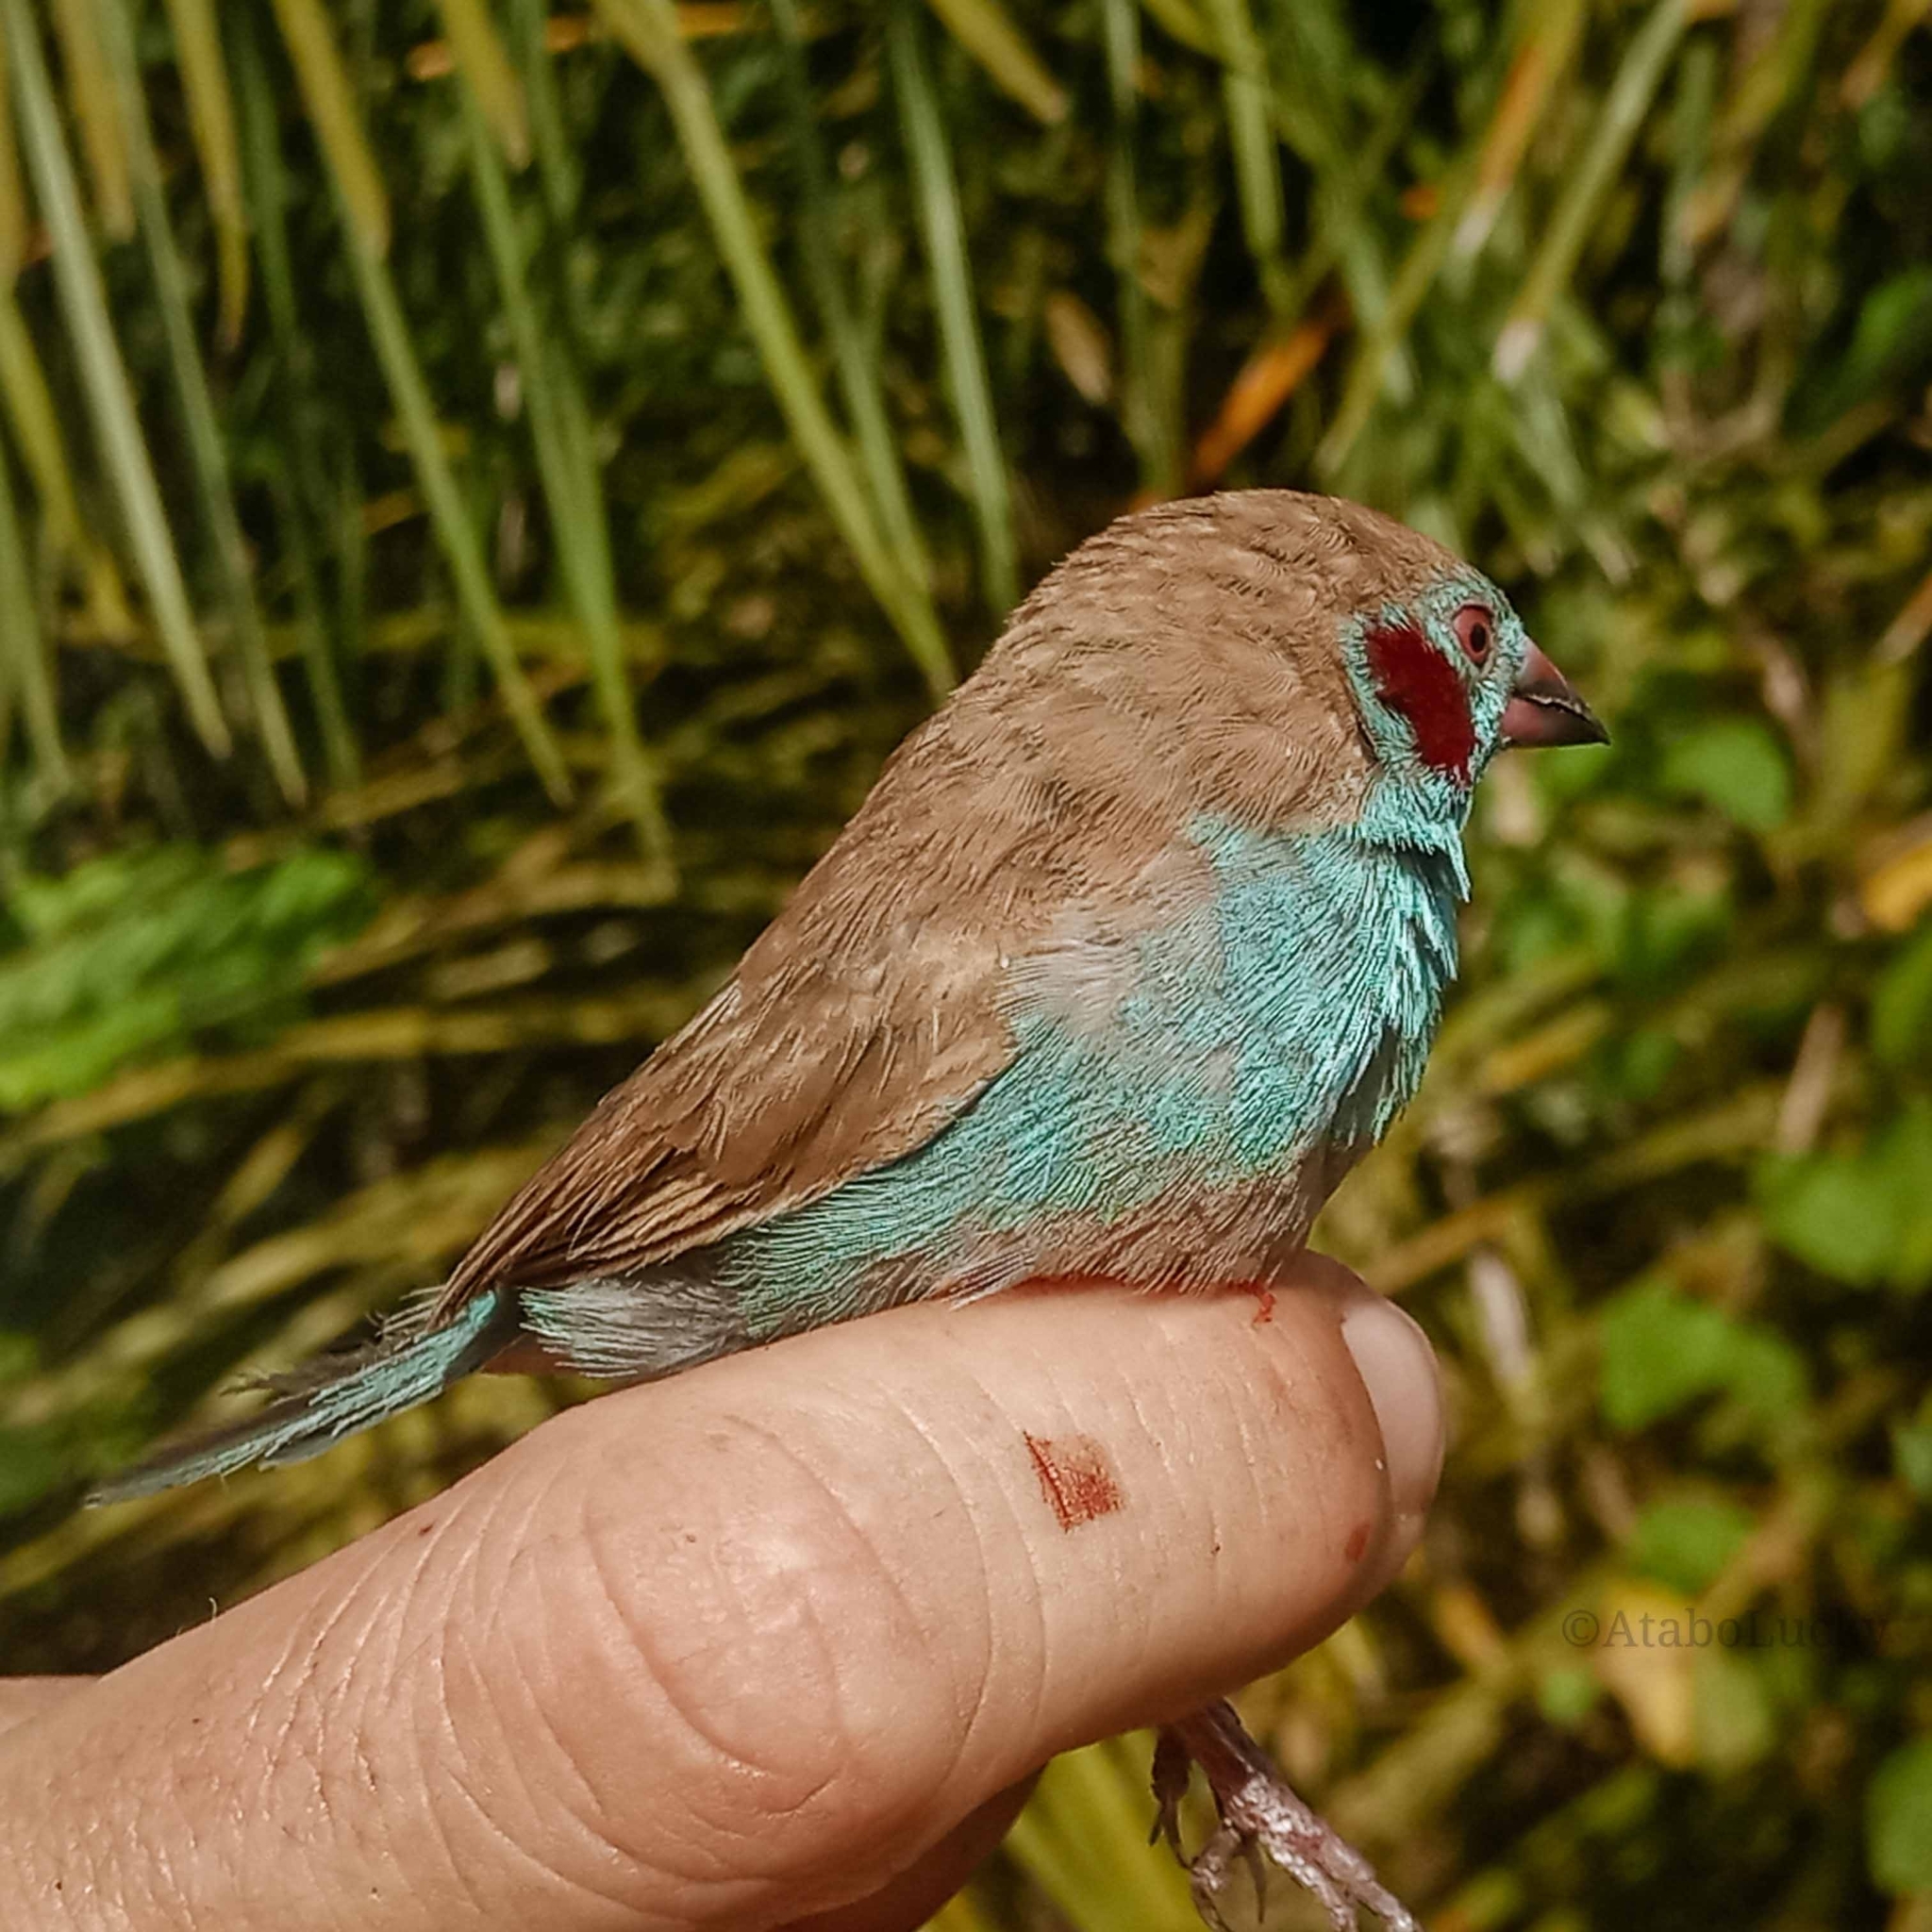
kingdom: Animalia
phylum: Chordata
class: Aves
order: Passeriformes
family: Estrildidae
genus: Uraeginthus
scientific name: Uraeginthus bengalus
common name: Red-cheeked cordon-bleu
